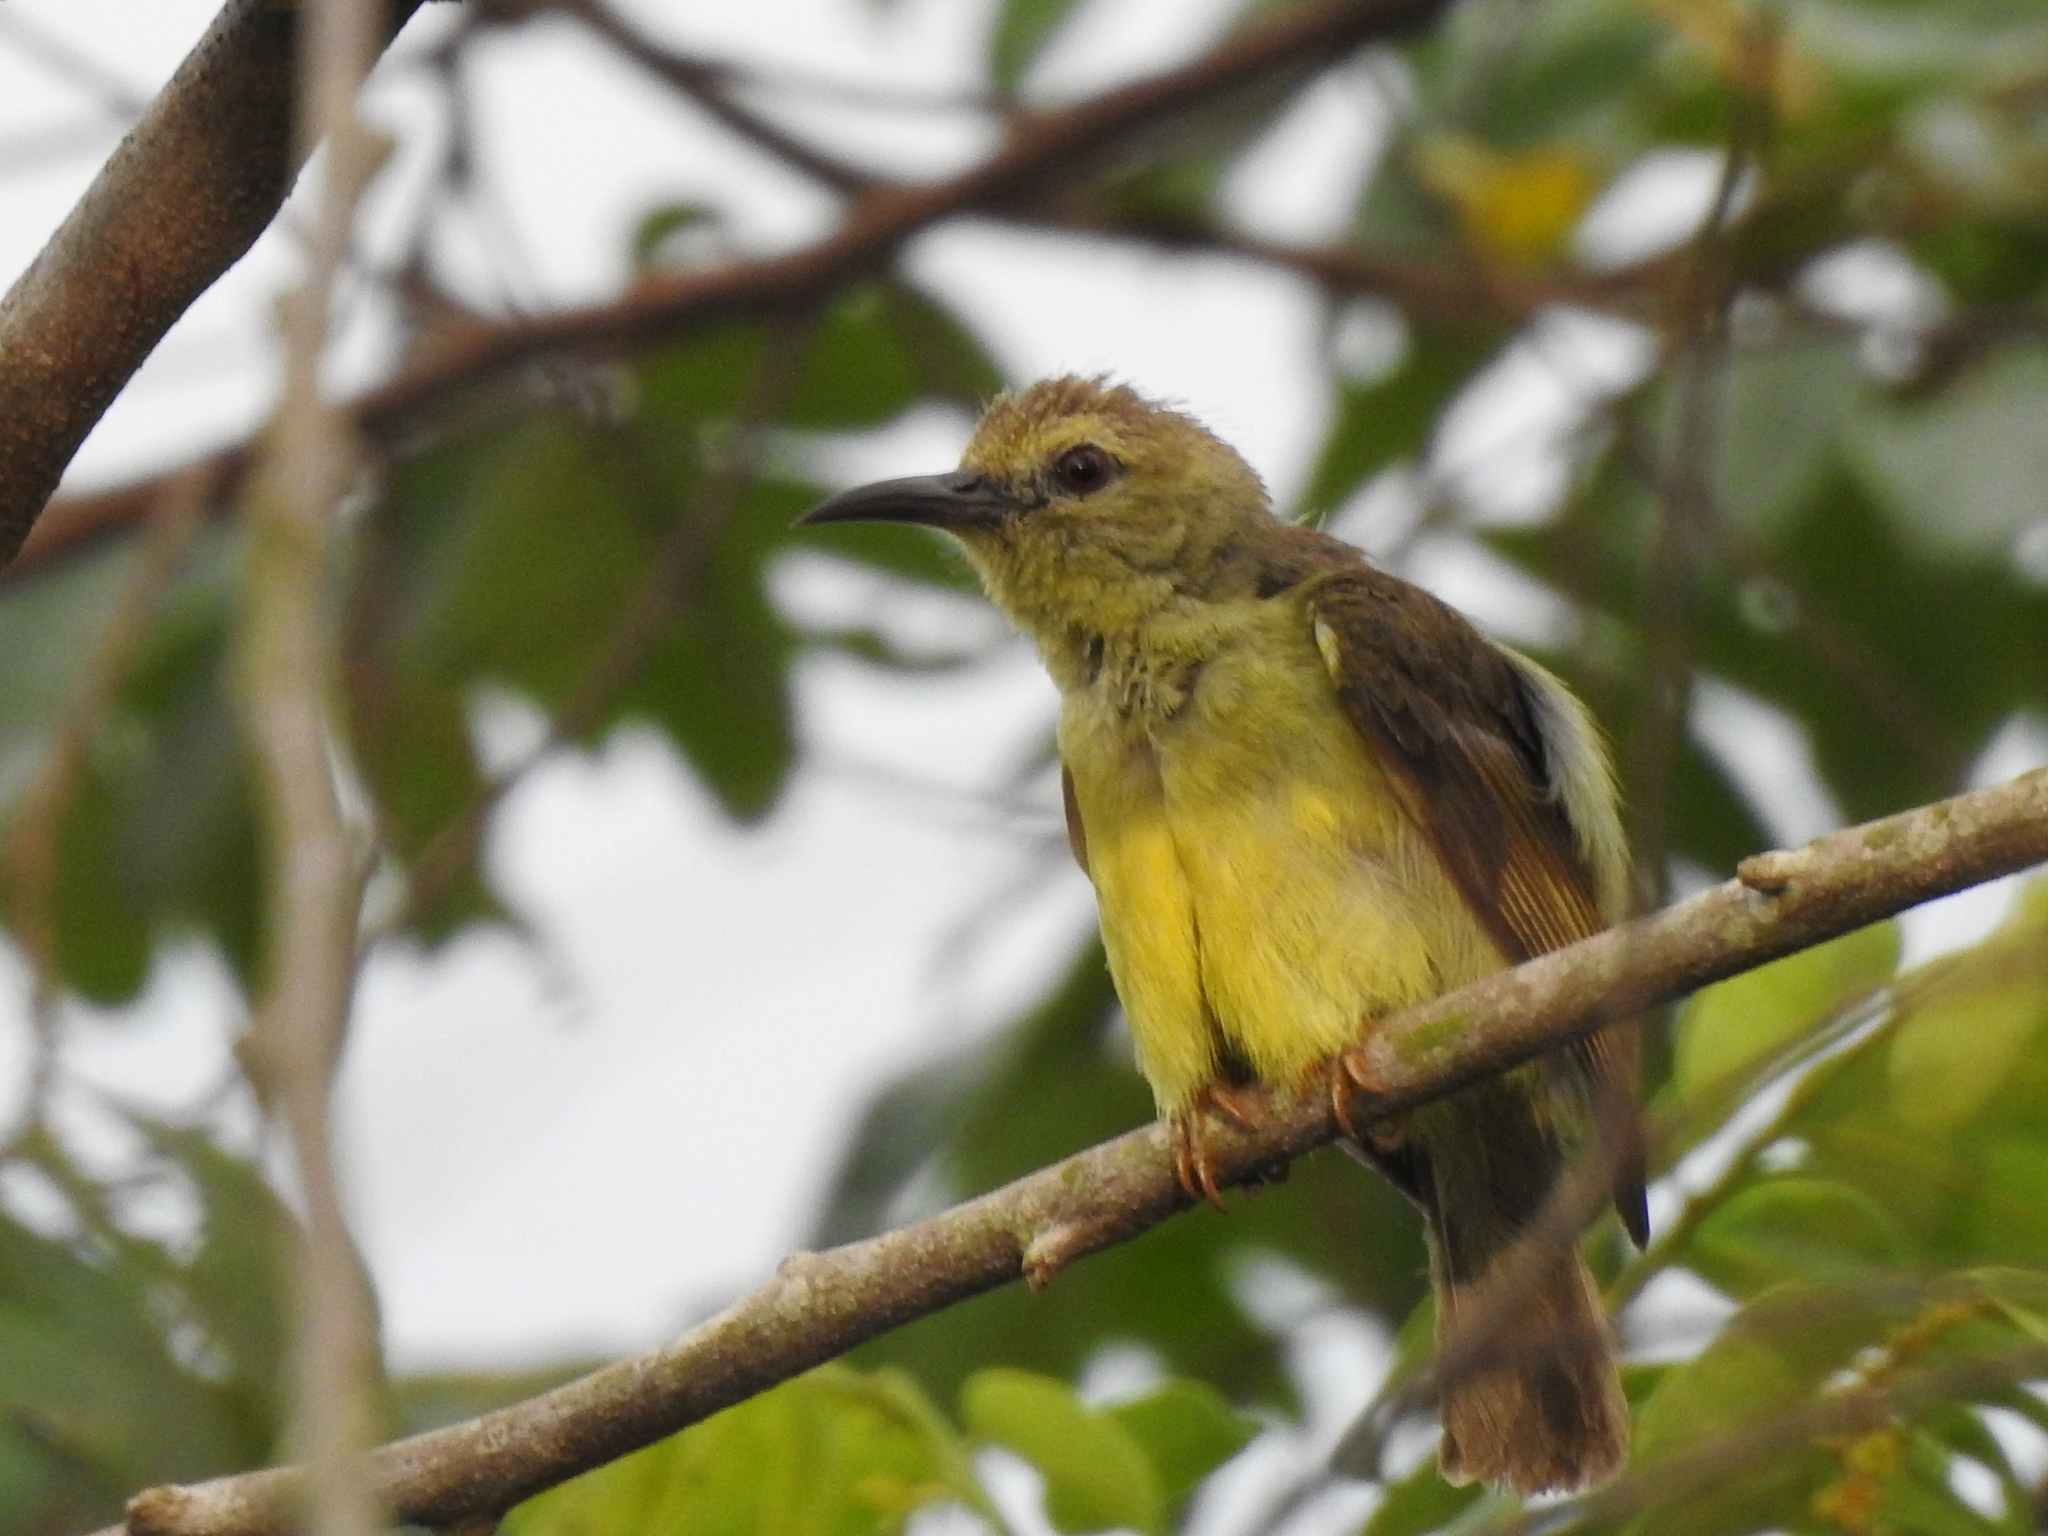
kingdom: Animalia
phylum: Chordata
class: Aves
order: Passeriformes
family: Nectariniidae
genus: Anthreptes
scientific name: Anthreptes malacensis
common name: Brown-throated sunbird
